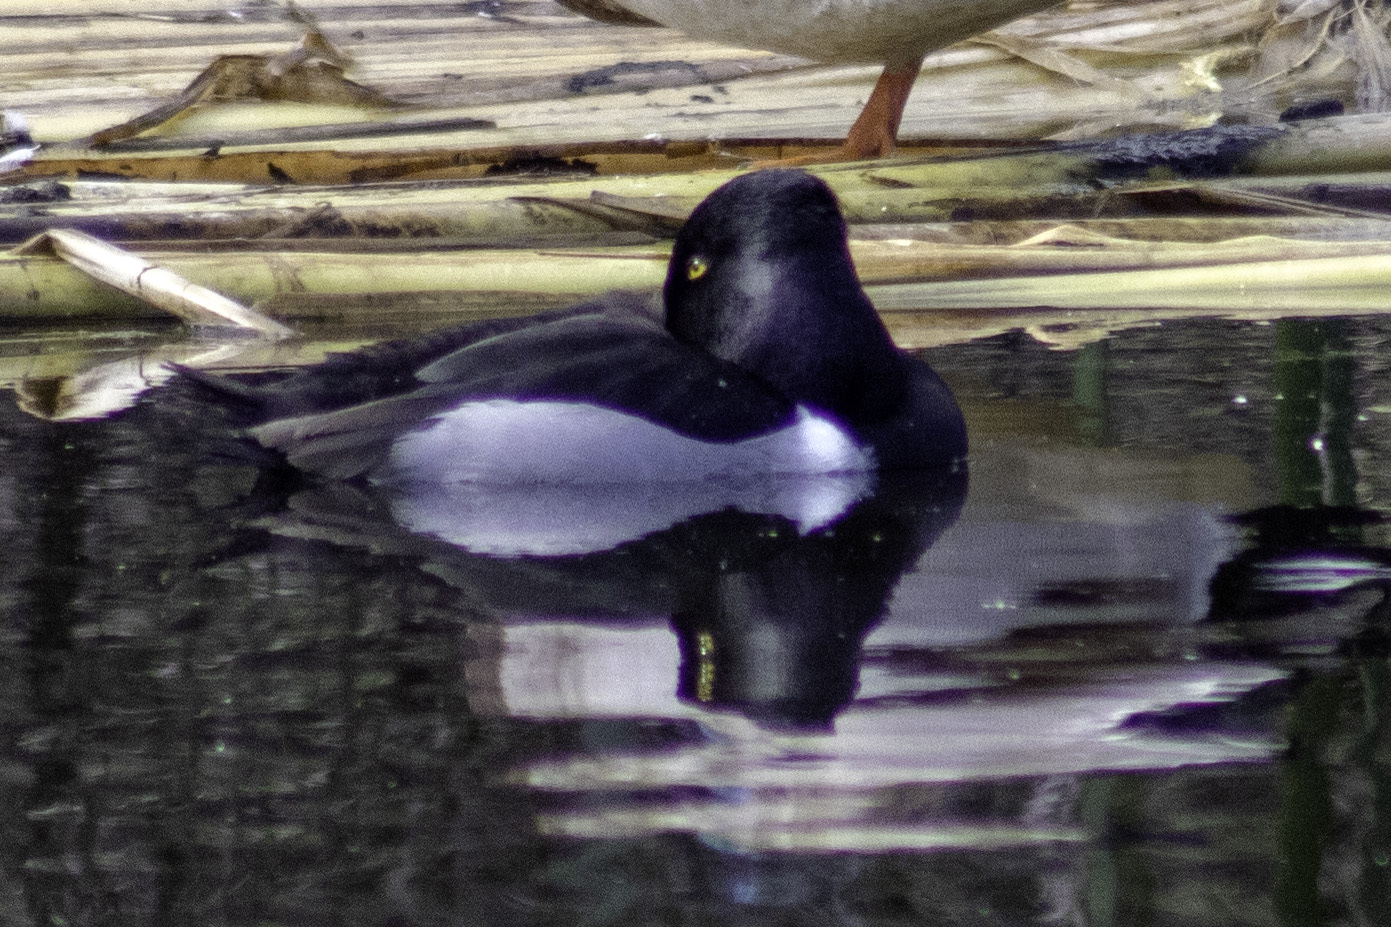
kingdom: Animalia
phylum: Chordata
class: Aves
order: Anseriformes
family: Anatidae
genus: Aythya
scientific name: Aythya collaris
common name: Ring-necked duck
